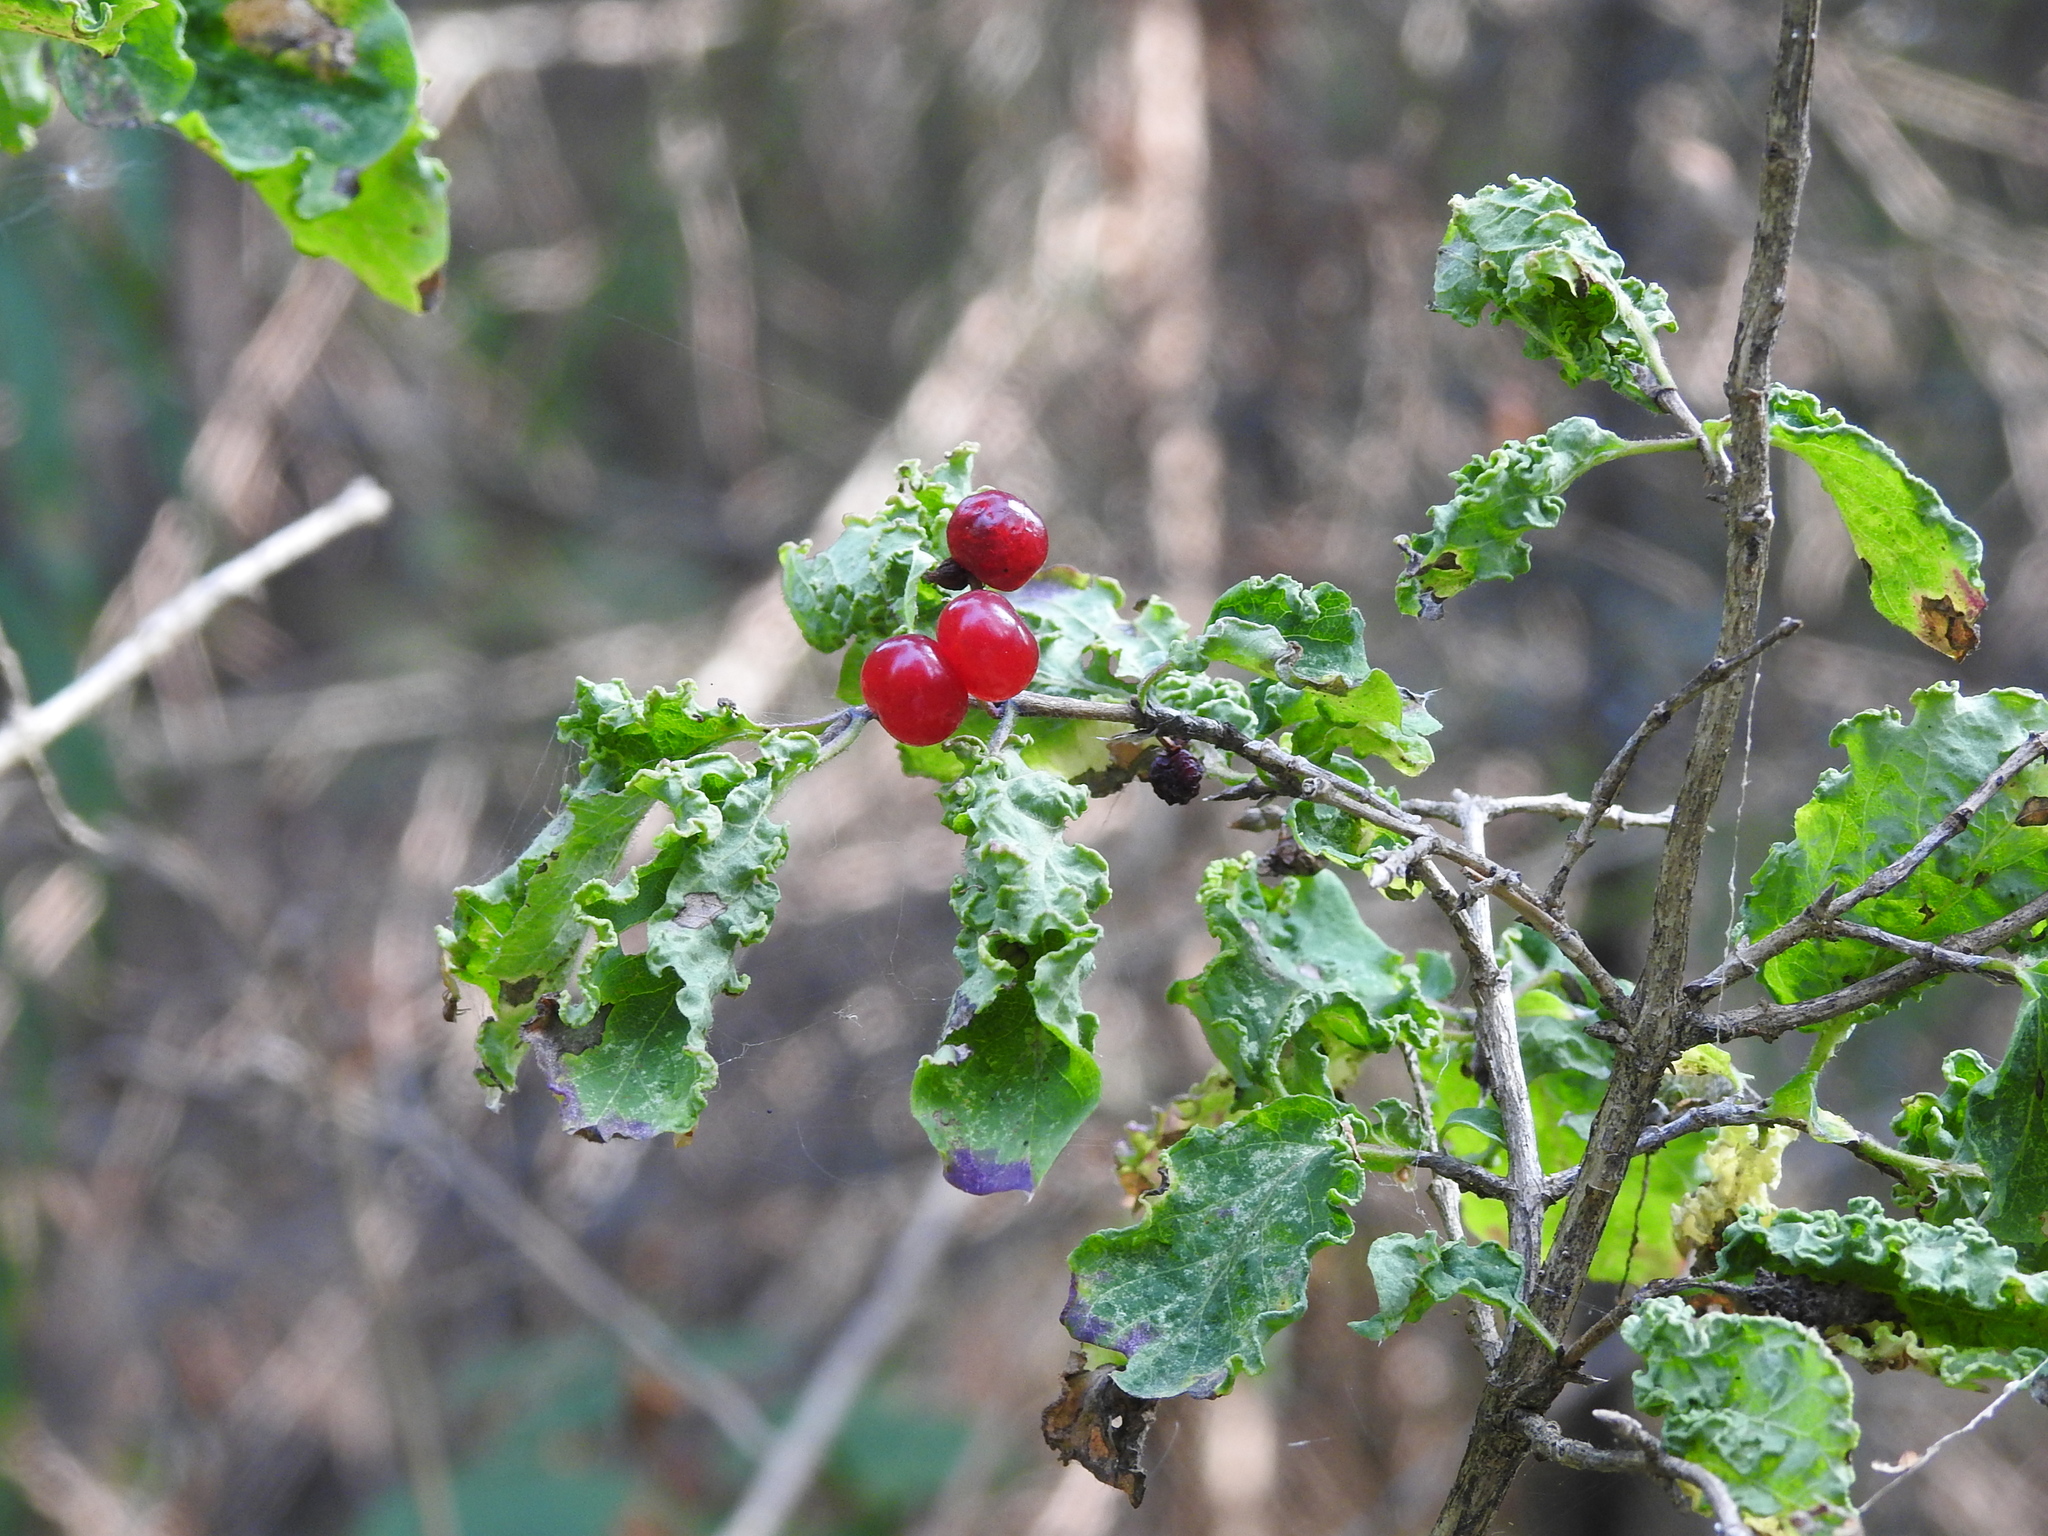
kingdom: Plantae
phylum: Tracheophyta
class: Magnoliopsida
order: Dipsacales
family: Caprifoliaceae
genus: Lonicera
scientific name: Lonicera xylosteum
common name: Fly honeysuckle
